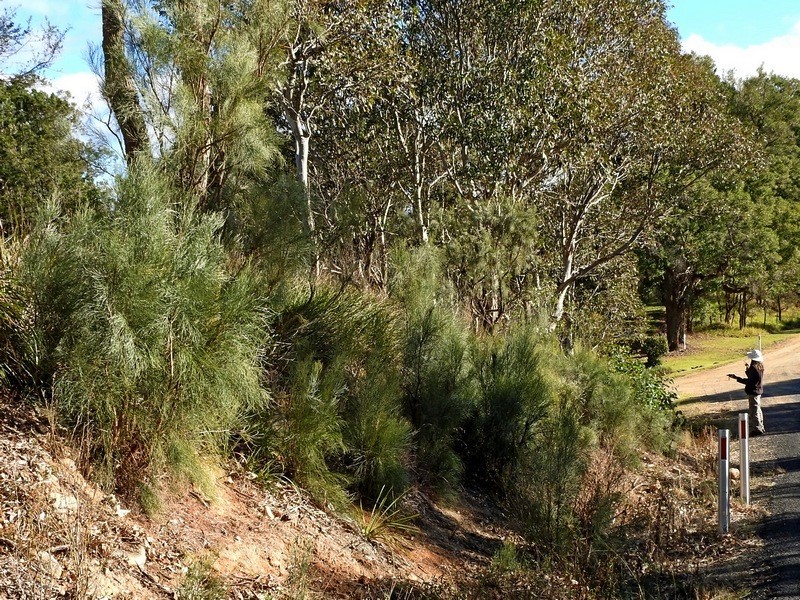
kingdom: Plantae
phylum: Tracheophyta
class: Magnoliopsida
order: Fabales
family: Fabaceae
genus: Jacksonia
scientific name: Jacksonia scoparia
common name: Dogwood
